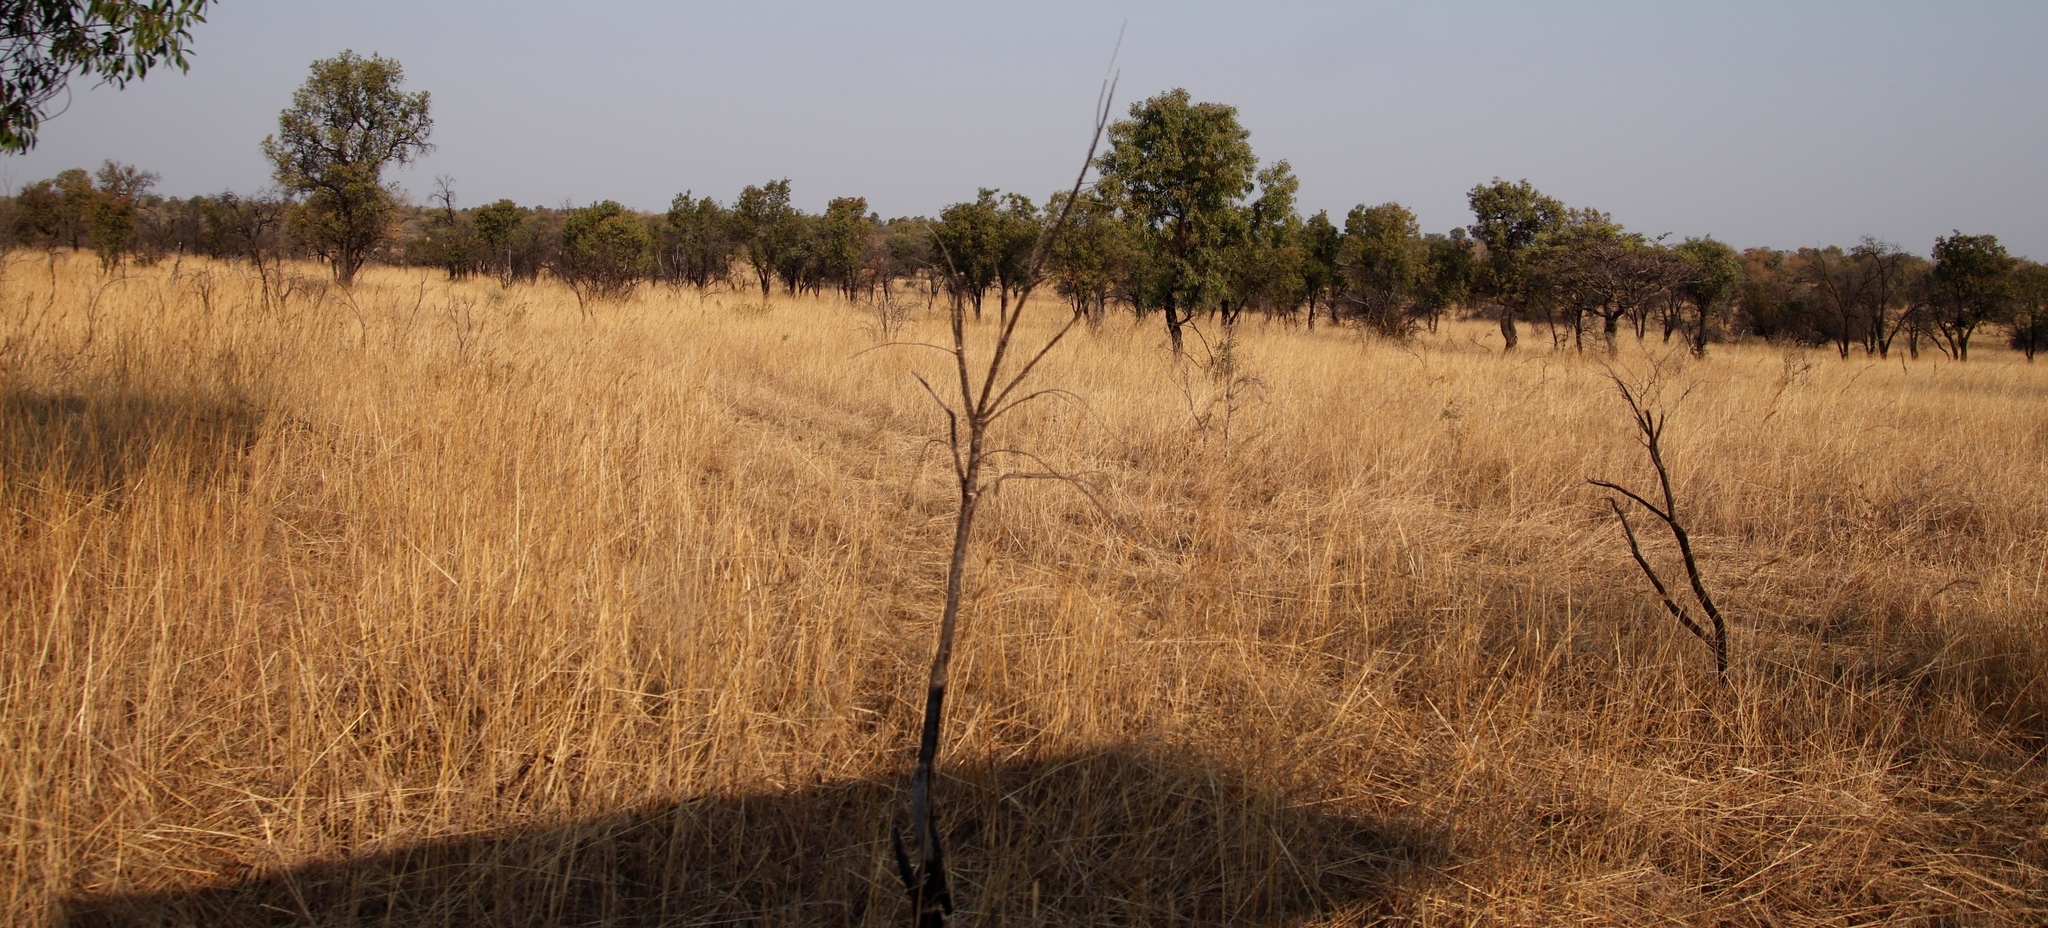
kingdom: Plantae
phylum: Tracheophyta
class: Magnoliopsida
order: Proteales
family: Proteaceae
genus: Faurea
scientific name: Faurea saligna
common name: African bean
